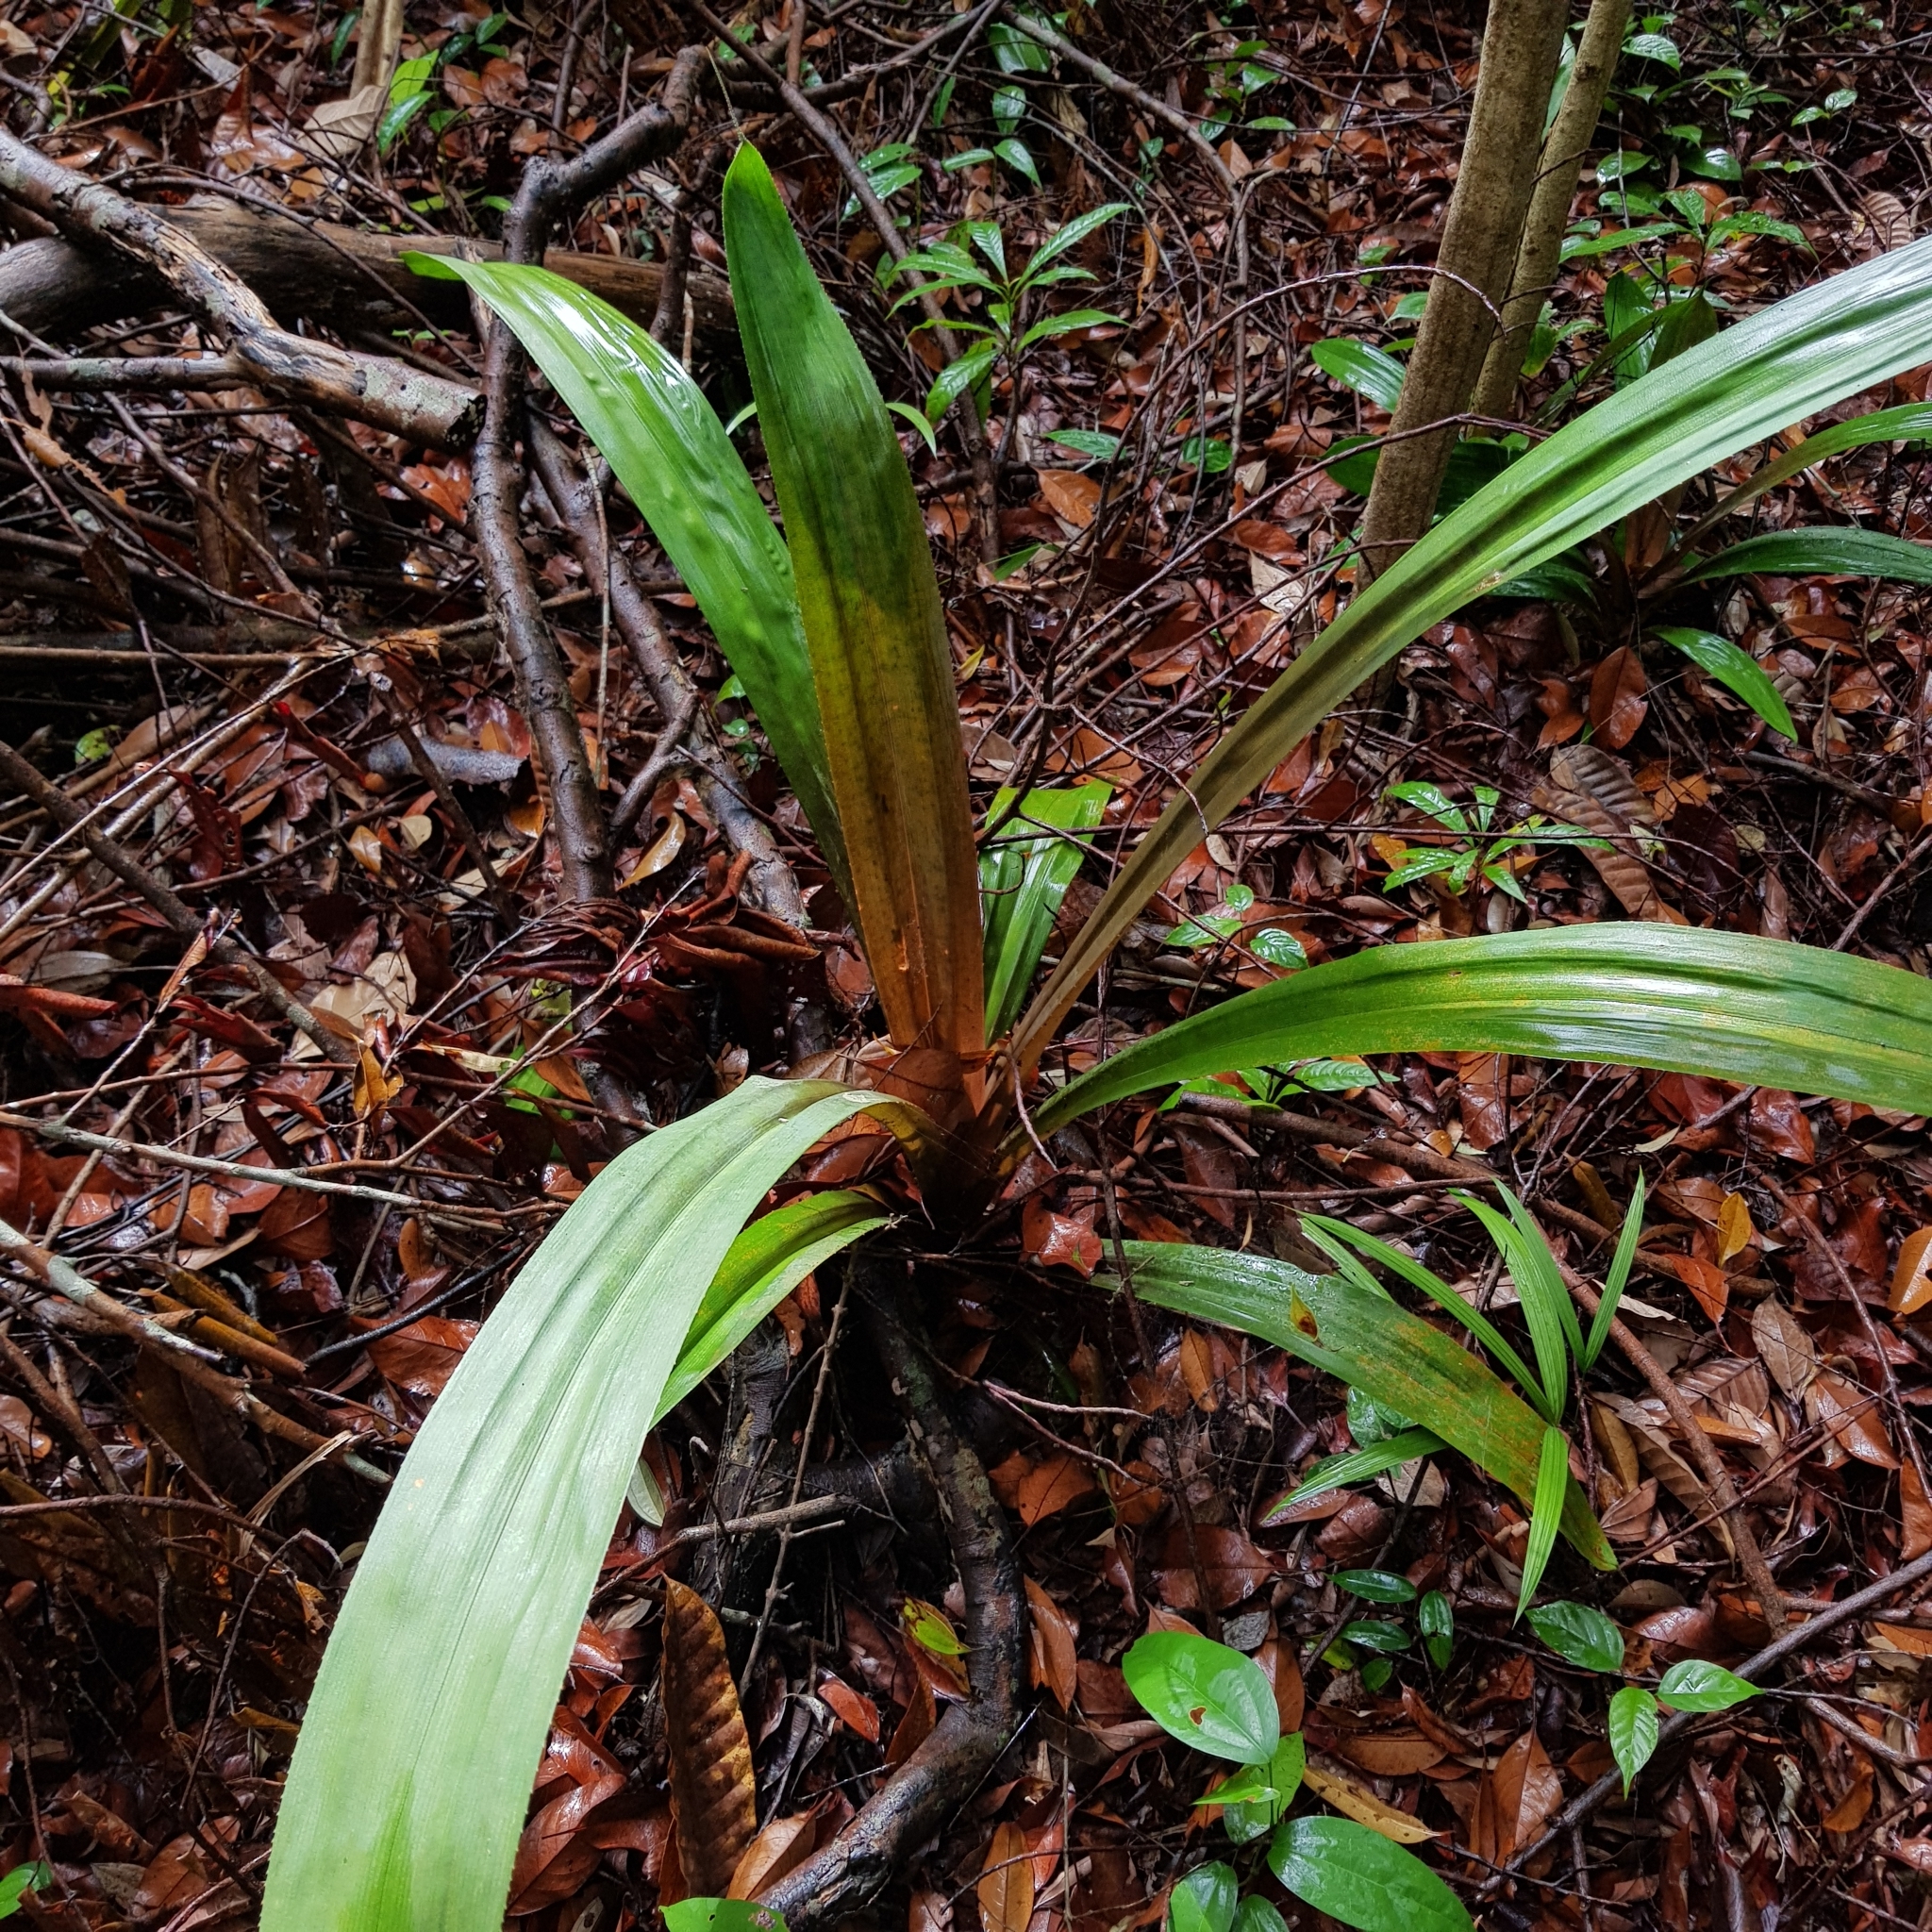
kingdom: Plantae
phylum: Tracheophyta
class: Liliopsida
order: Pandanales
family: Pandanaceae
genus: Pandanus
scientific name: Pandanus houlletii
